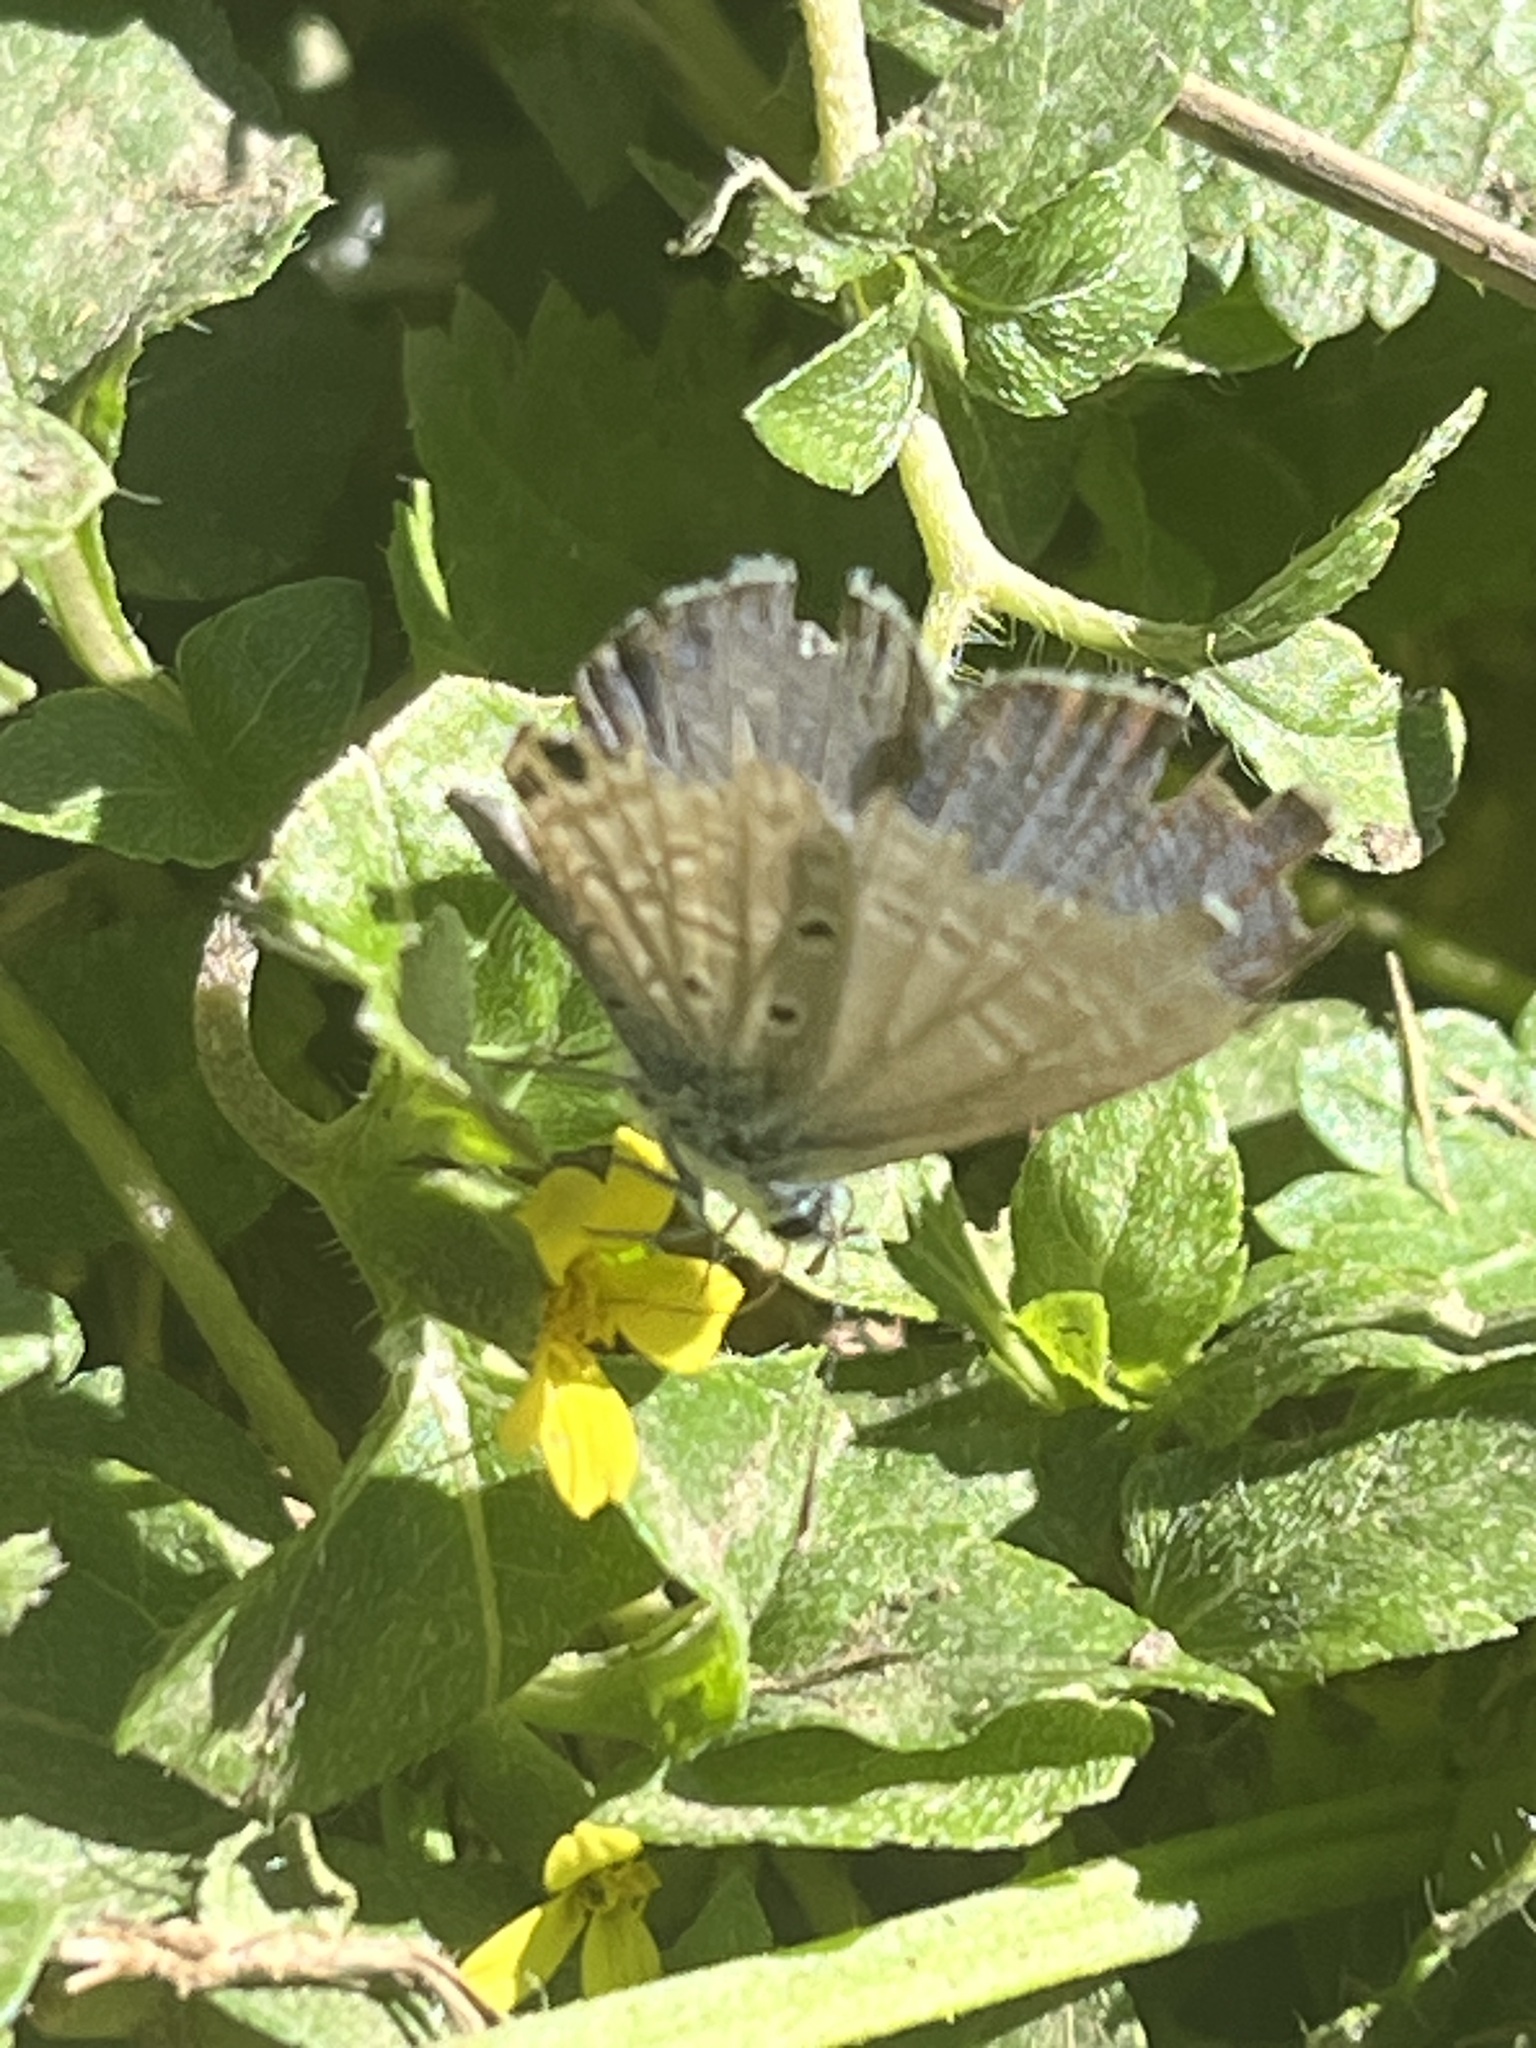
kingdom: Animalia
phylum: Arthropoda
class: Insecta
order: Lepidoptera
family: Lycaenidae
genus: Hemiargus
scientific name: Hemiargus ceraunus
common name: Ceraunus blue
